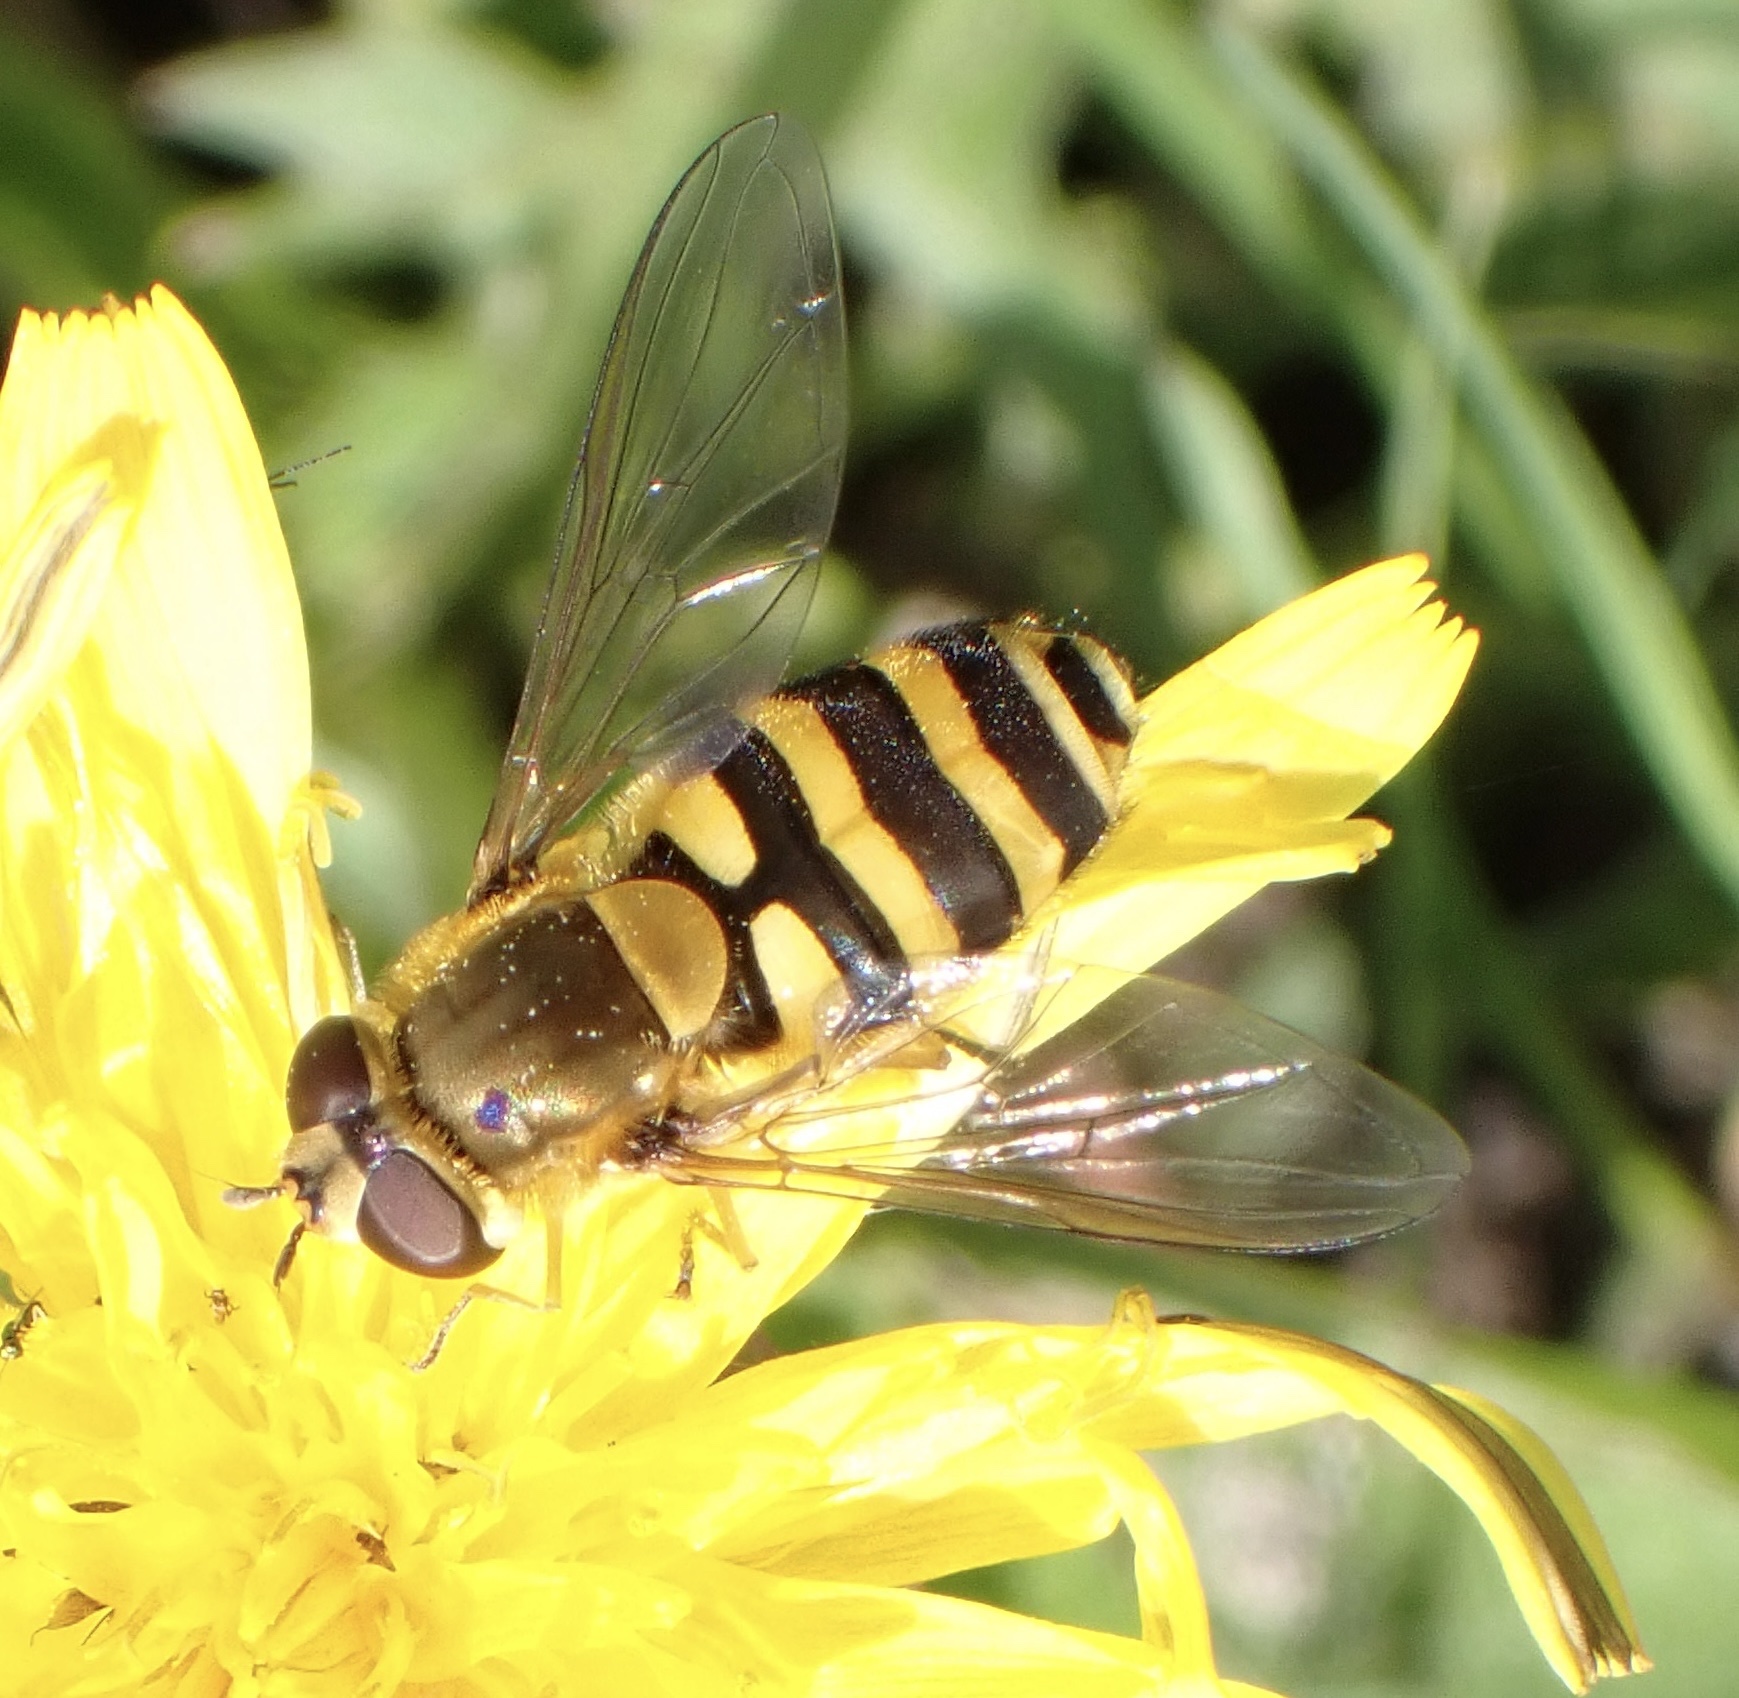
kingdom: Animalia
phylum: Arthropoda
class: Insecta
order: Diptera
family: Syrphidae
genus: Syrphus
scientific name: Syrphus
